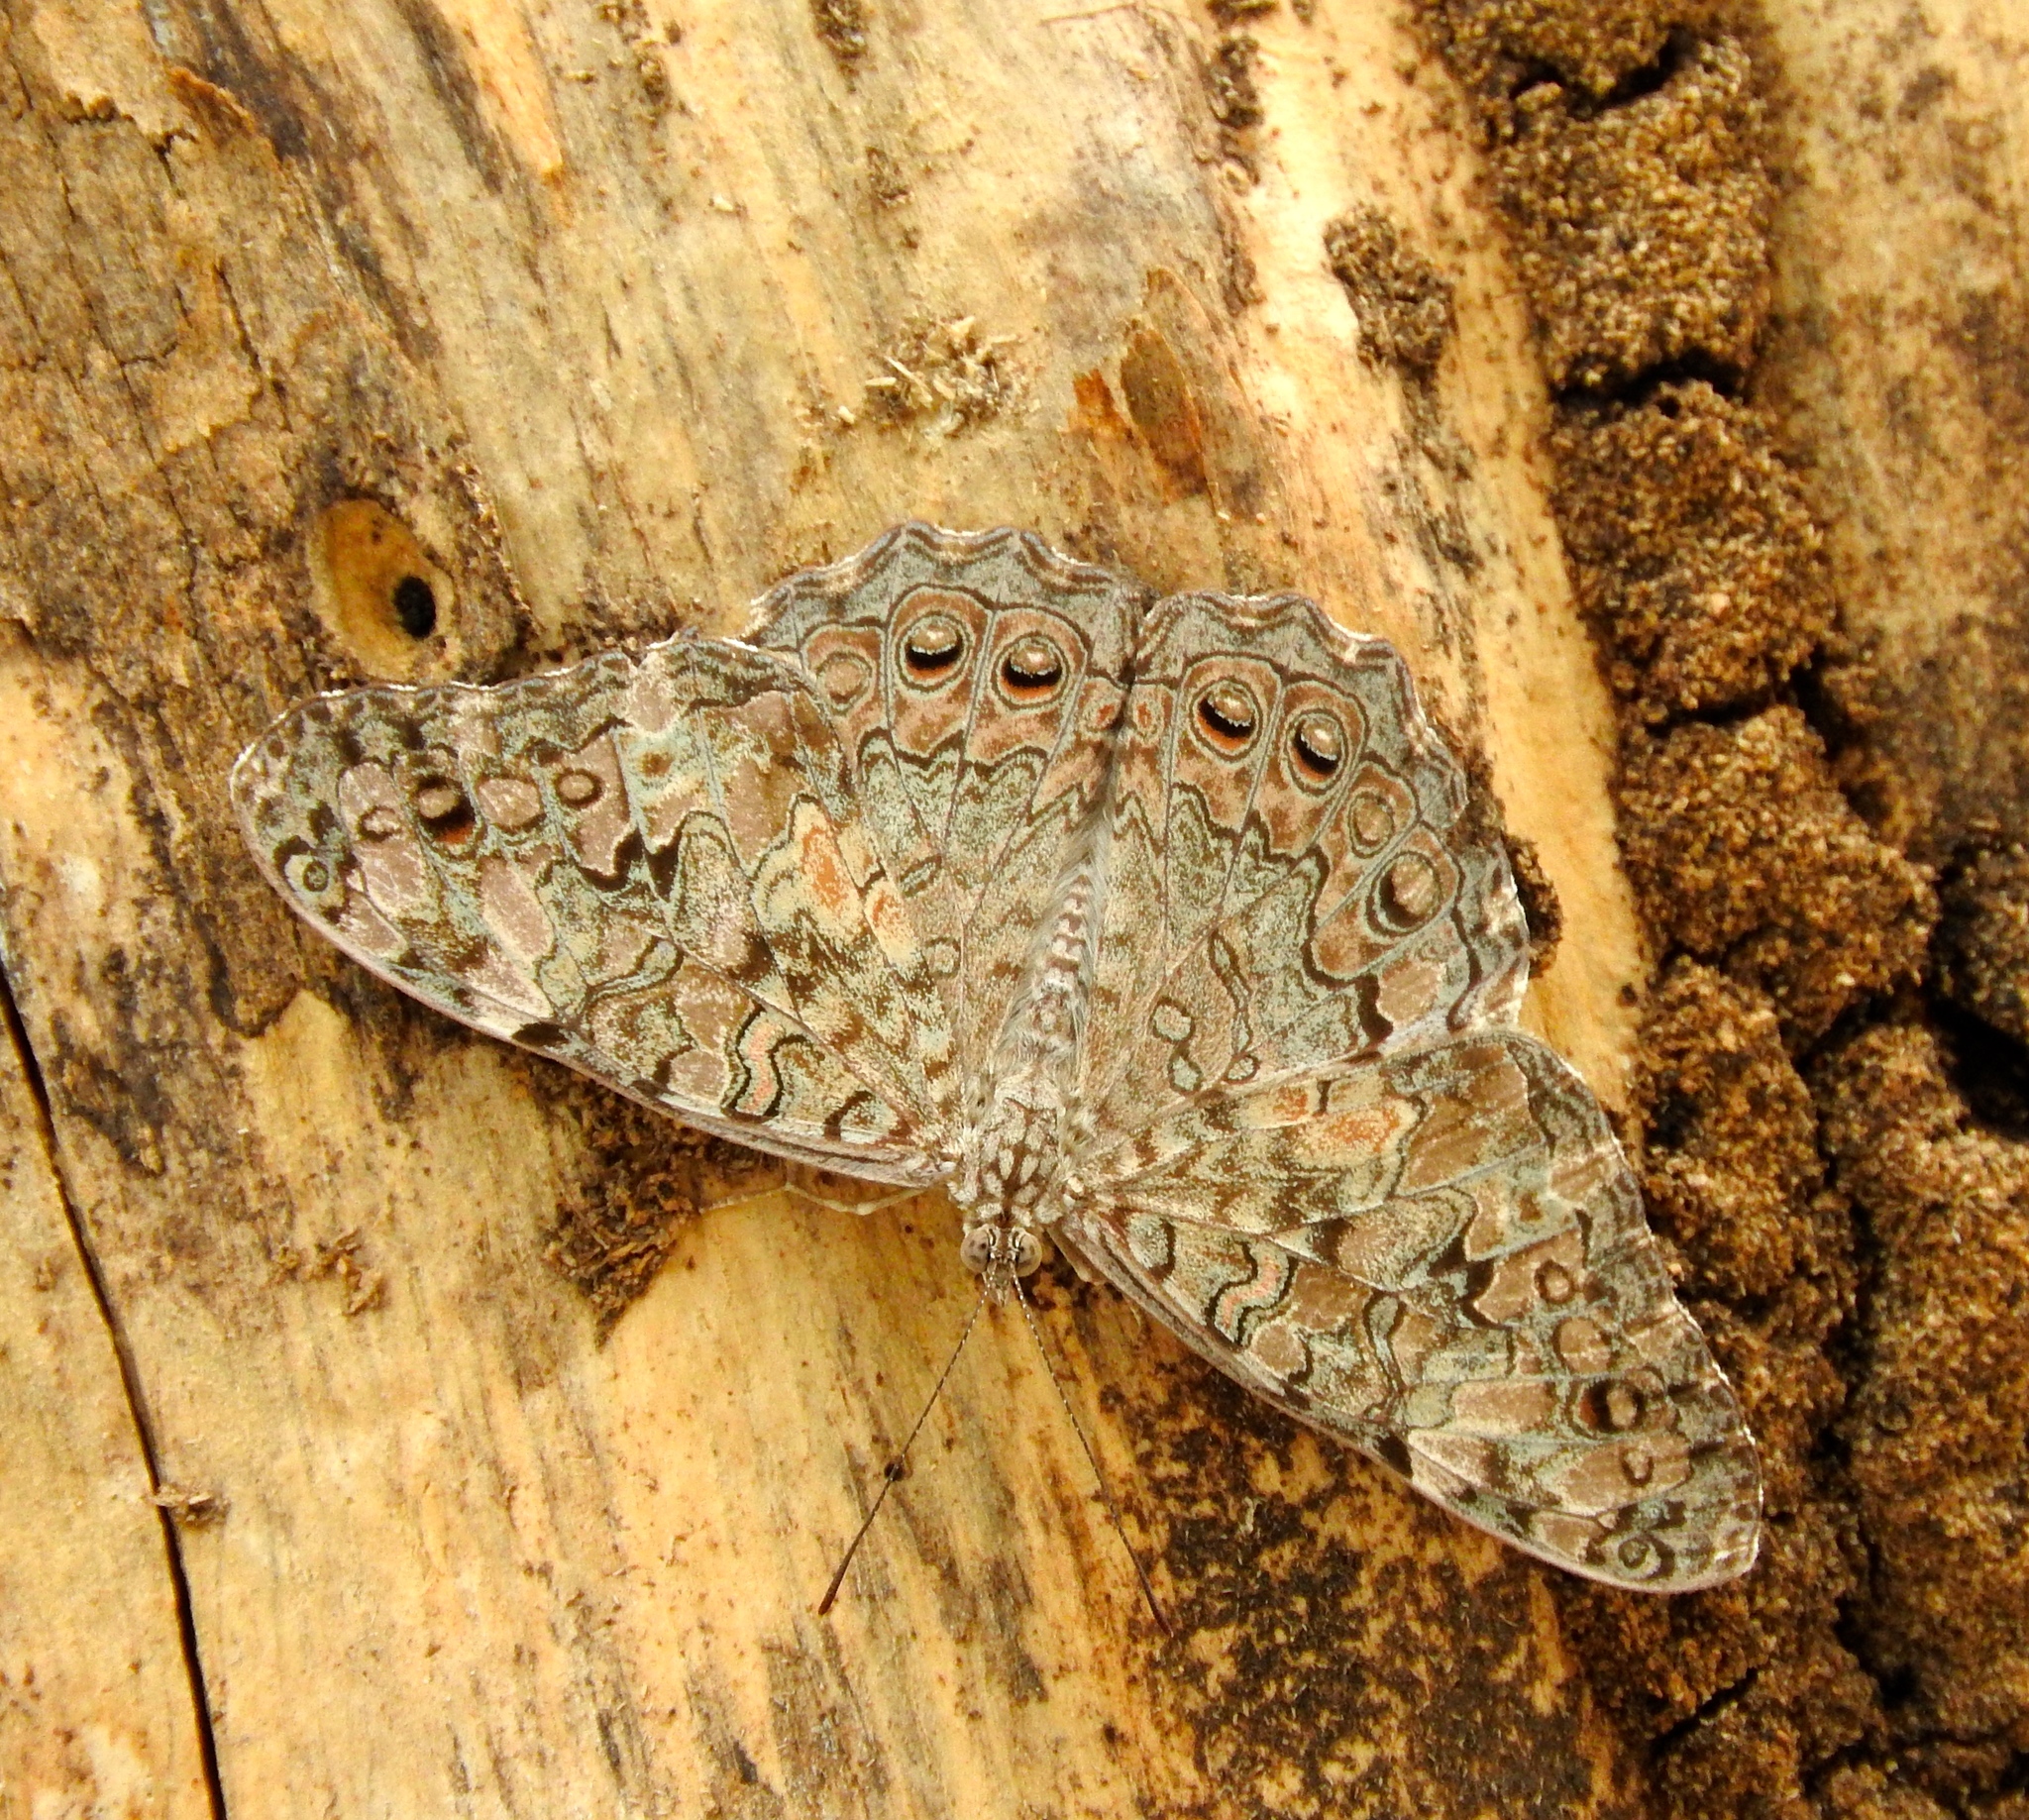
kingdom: Animalia
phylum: Arthropoda
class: Insecta
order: Lepidoptera
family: Nymphalidae
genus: Hamadryas
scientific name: Hamadryas februa
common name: Gray cracker
